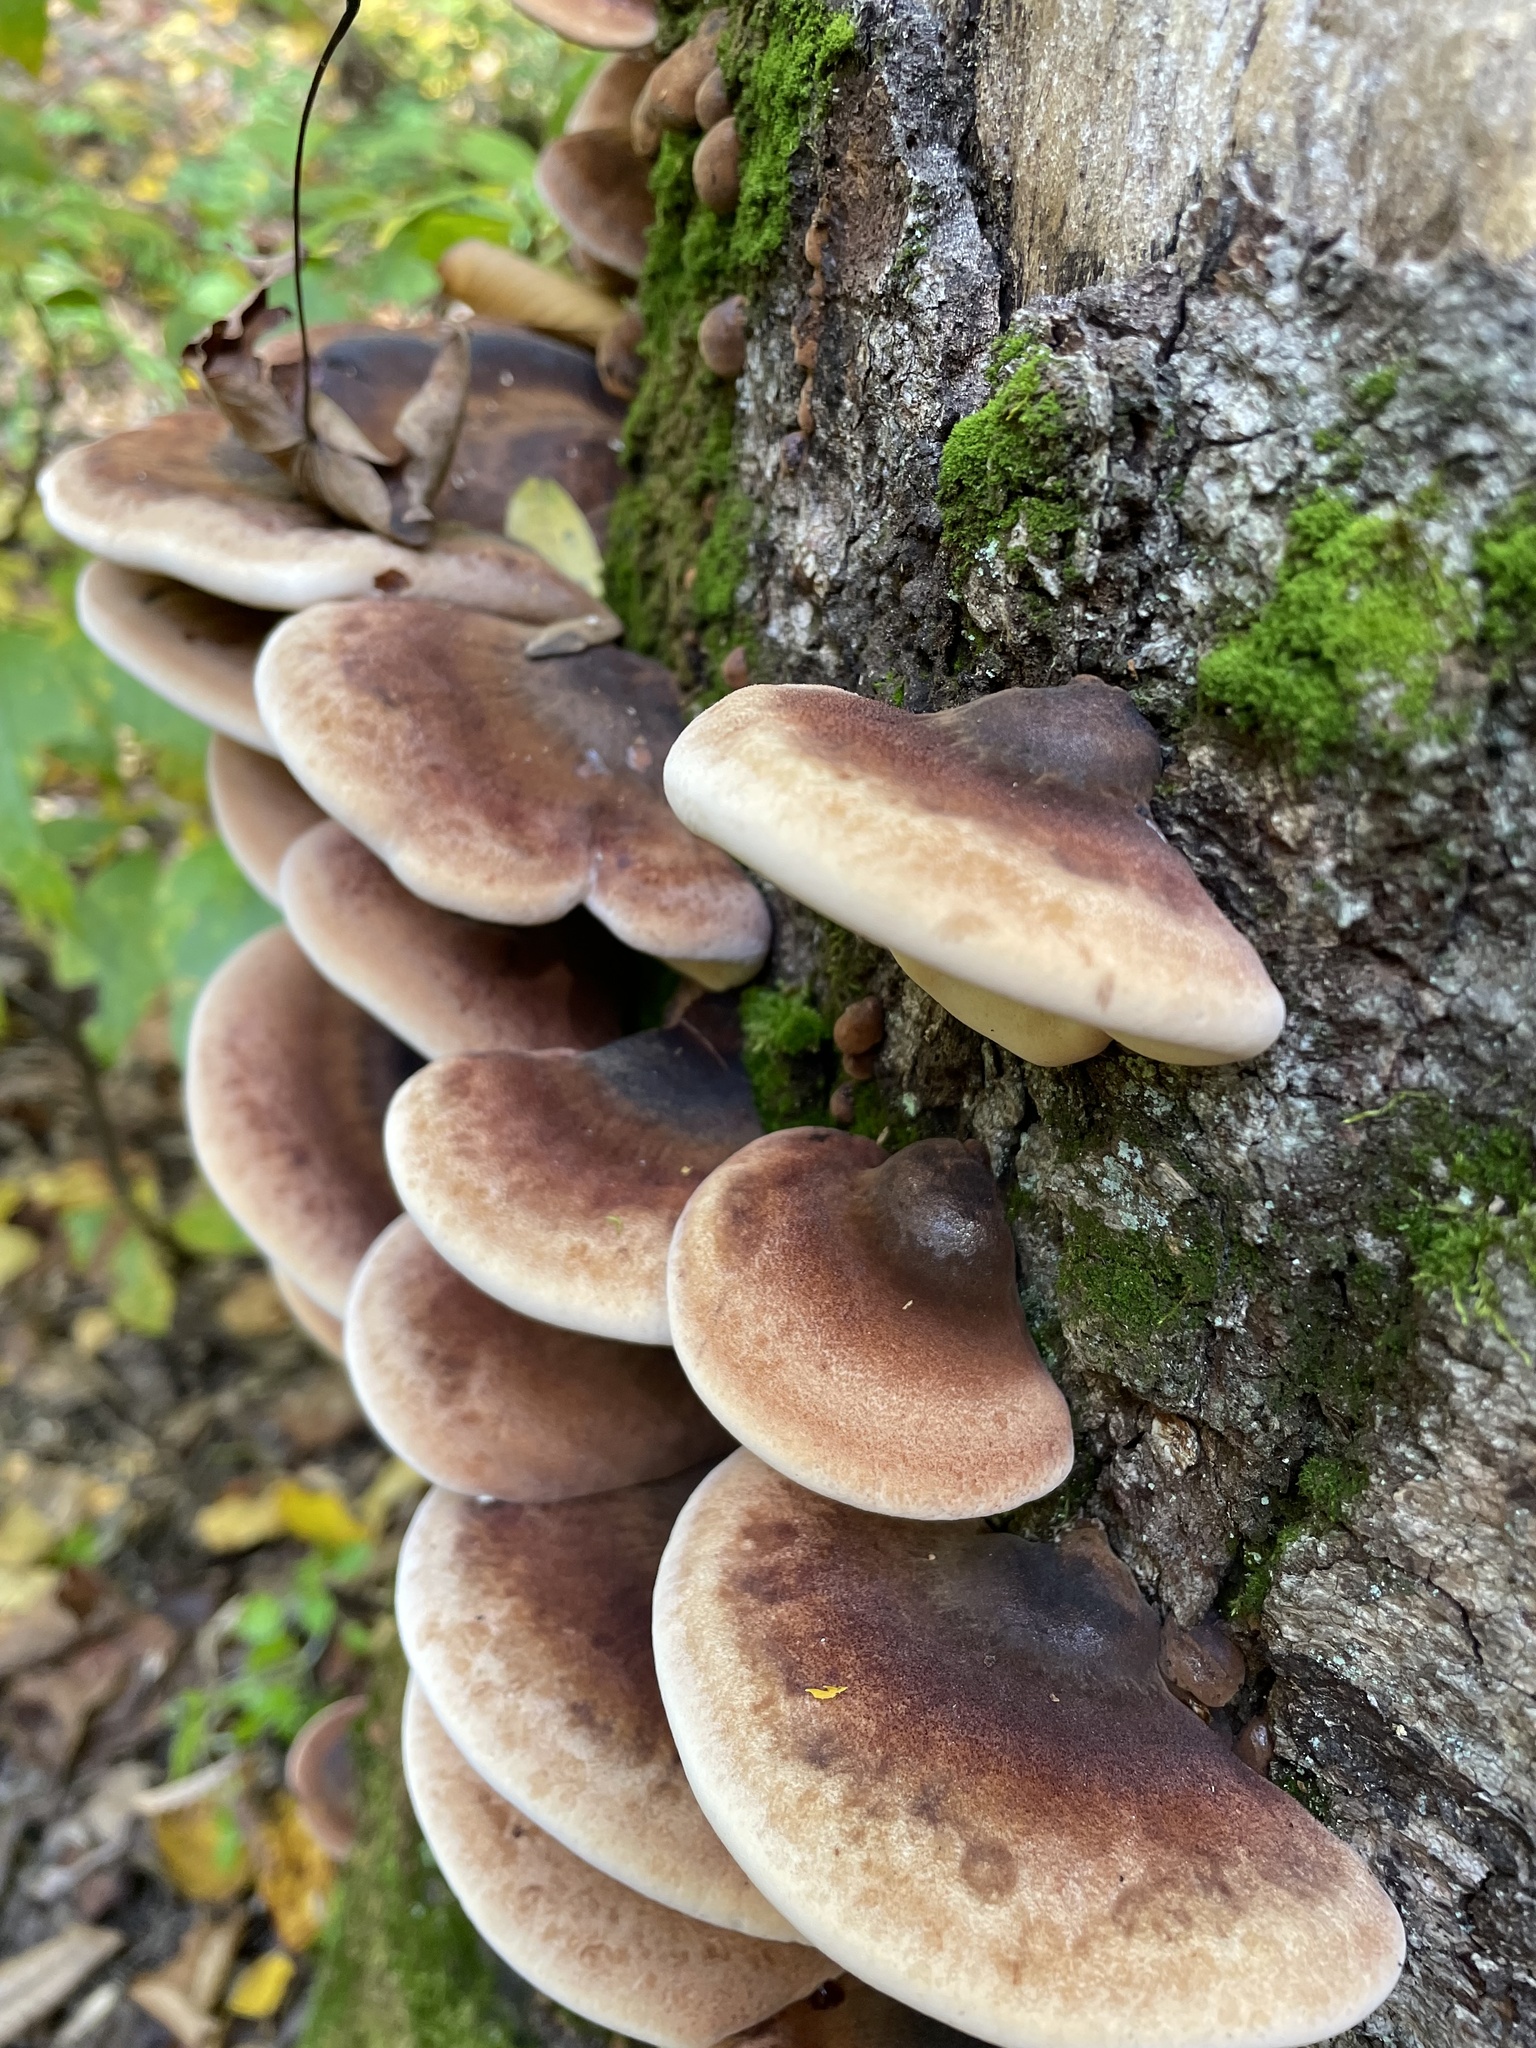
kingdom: Fungi
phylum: Basidiomycota
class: Agaricomycetes
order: Polyporales
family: Ischnodermataceae
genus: Ischnoderma
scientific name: Ischnoderma resinosum
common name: Resinous polypore
